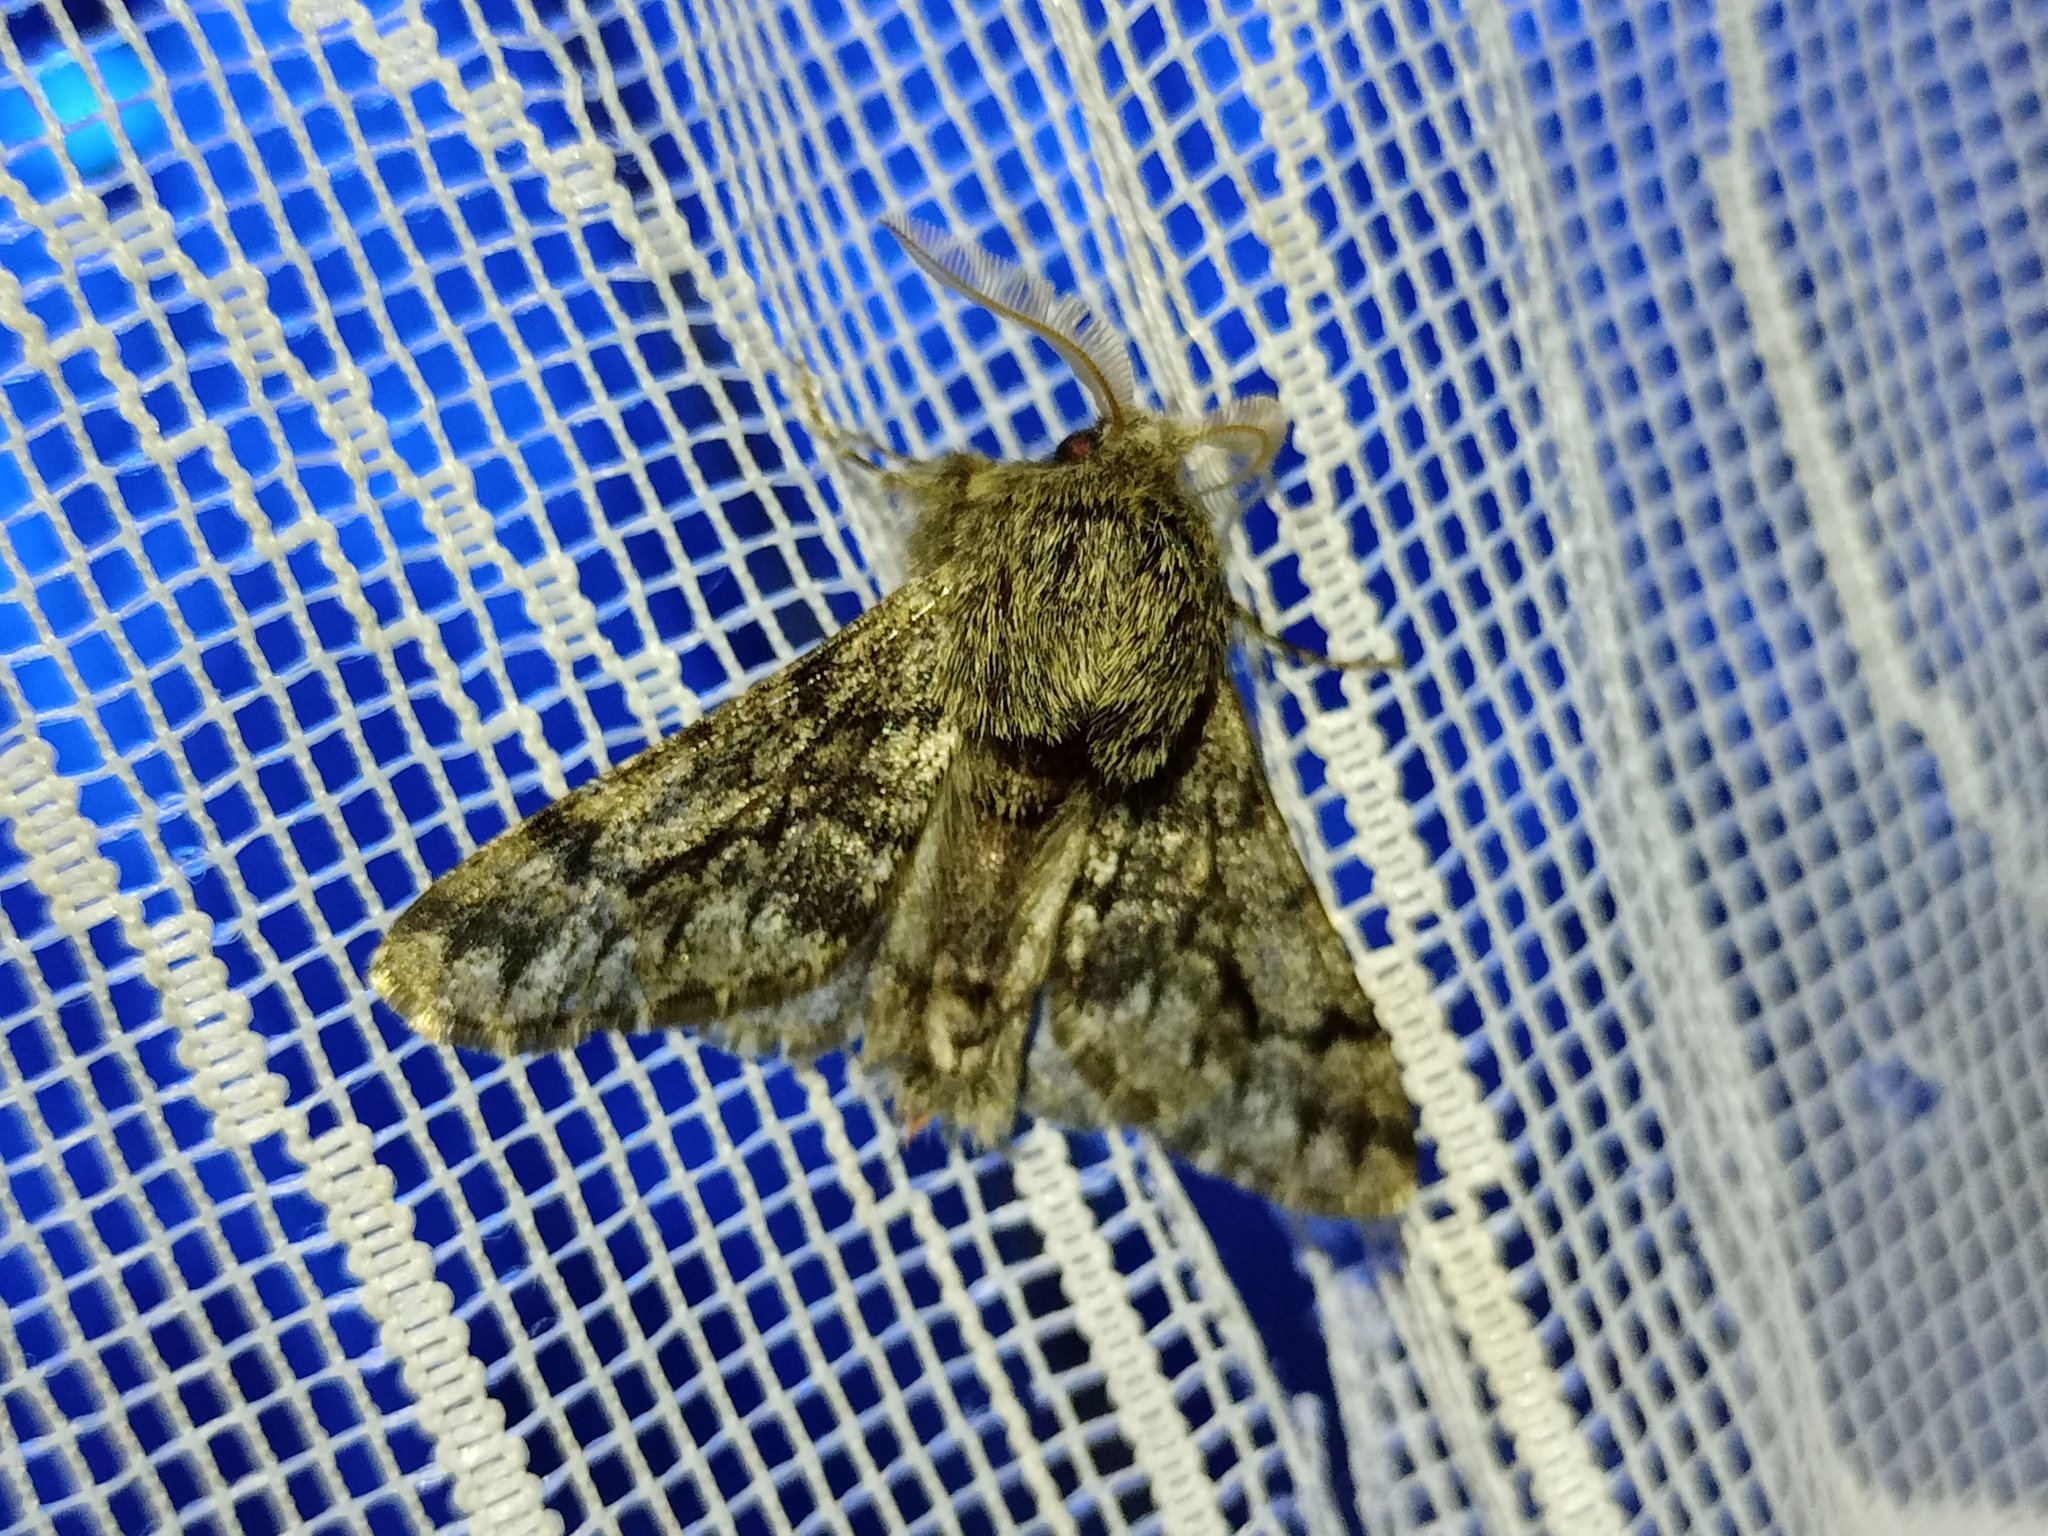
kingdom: Animalia
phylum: Arthropoda
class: Insecta
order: Lepidoptera
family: Geometridae
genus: Apocheima
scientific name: Apocheima hispidaria
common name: Small brindled beauty
